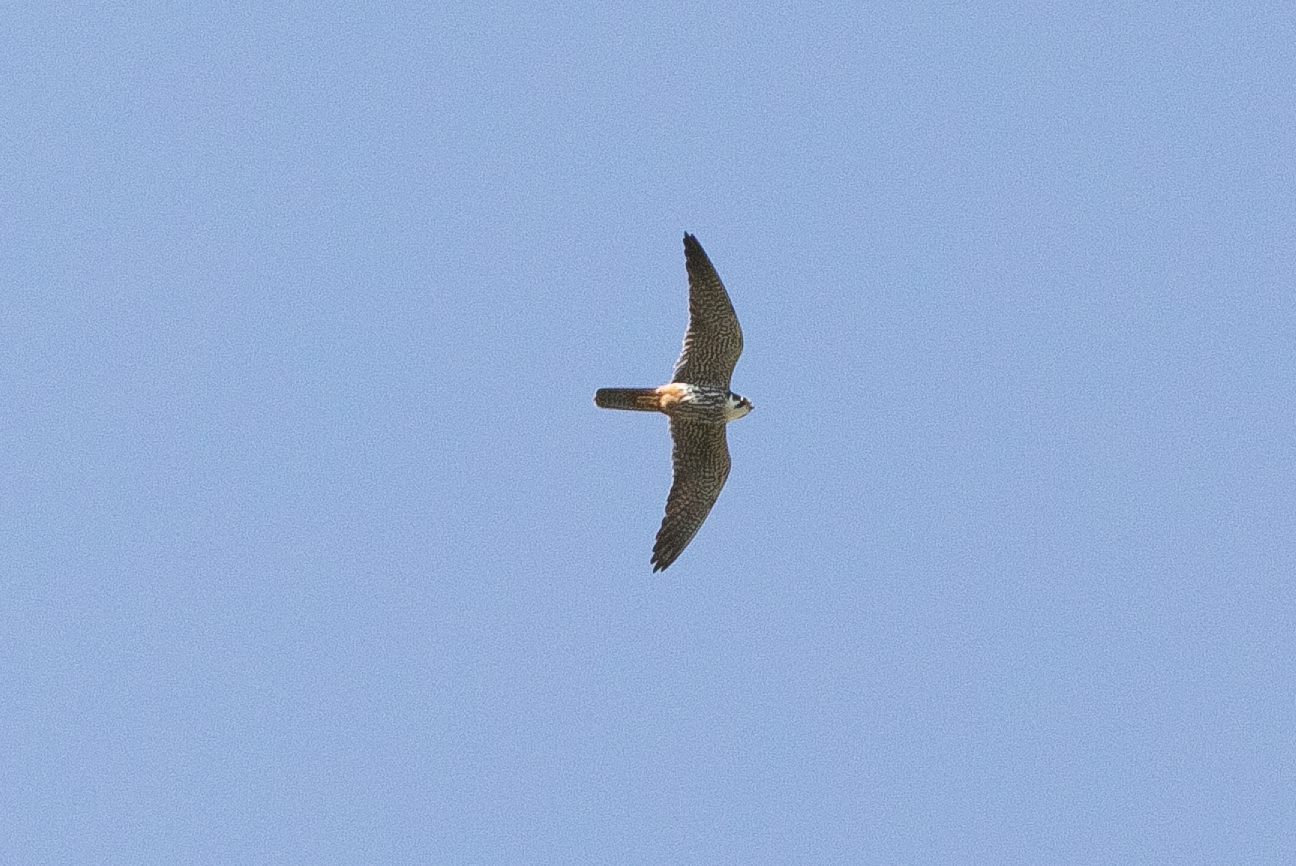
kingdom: Animalia
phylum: Chordata
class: Aves
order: Falconiformes
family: Falconidae
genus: Falco
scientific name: Falco subbuteo
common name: Eurasian hobby
